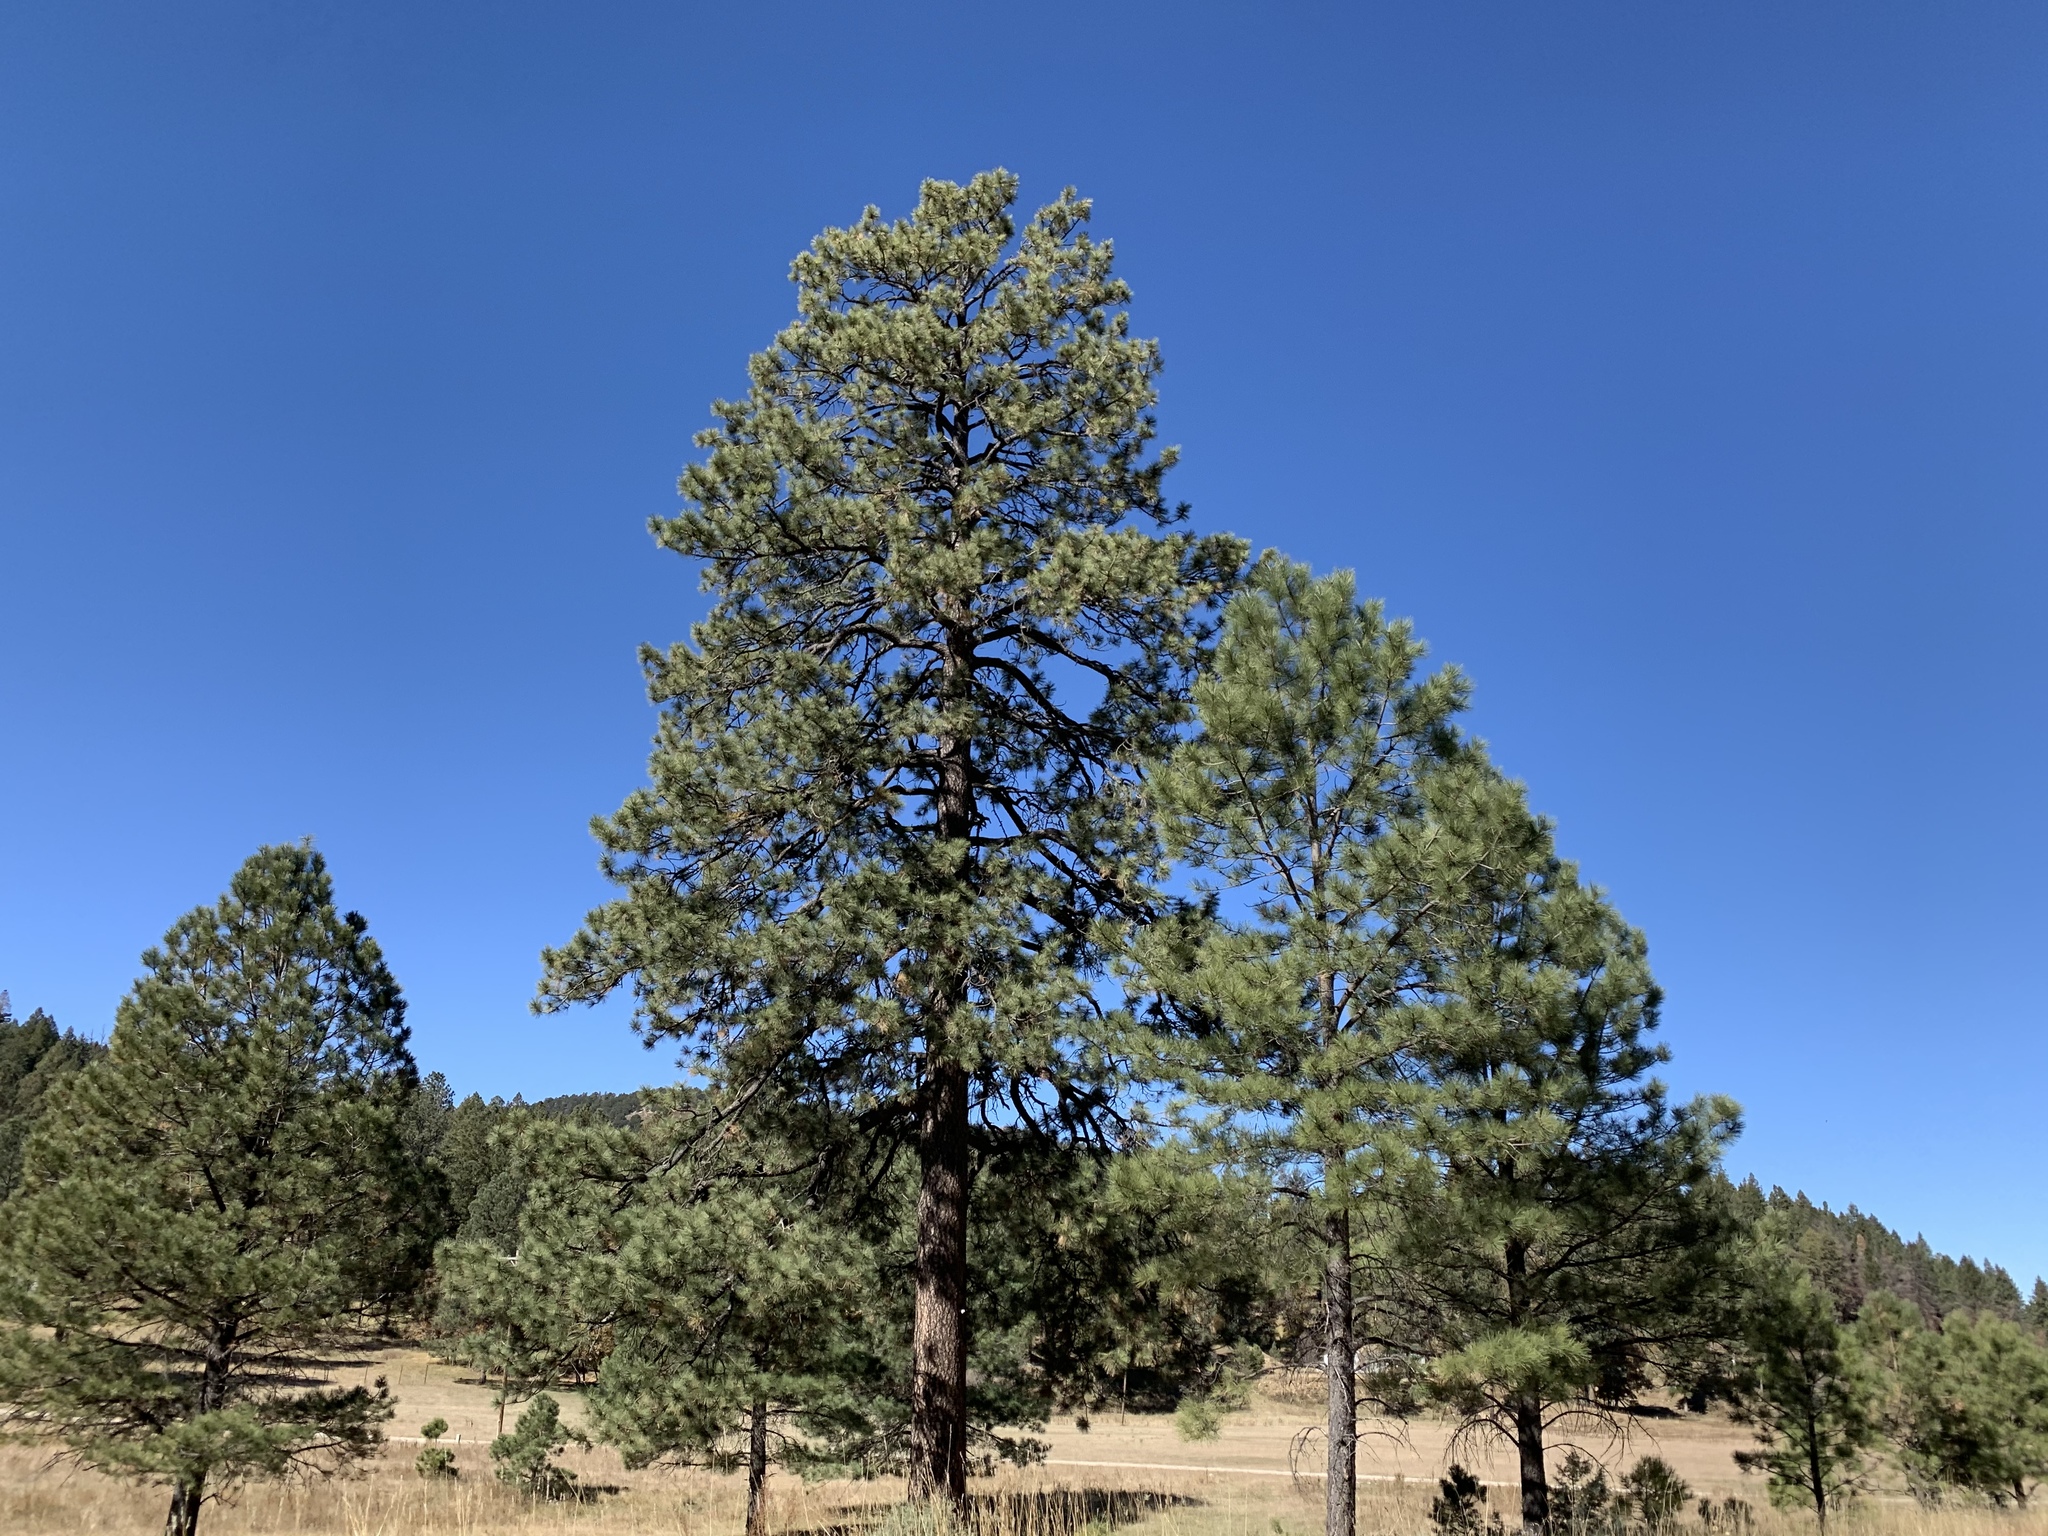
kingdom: Plantae
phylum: Tracheophyta
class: Pinopsida
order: Pinales
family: Pinaceae
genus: Pinus
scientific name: Pinus ponderosa
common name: Western yellow-pine
